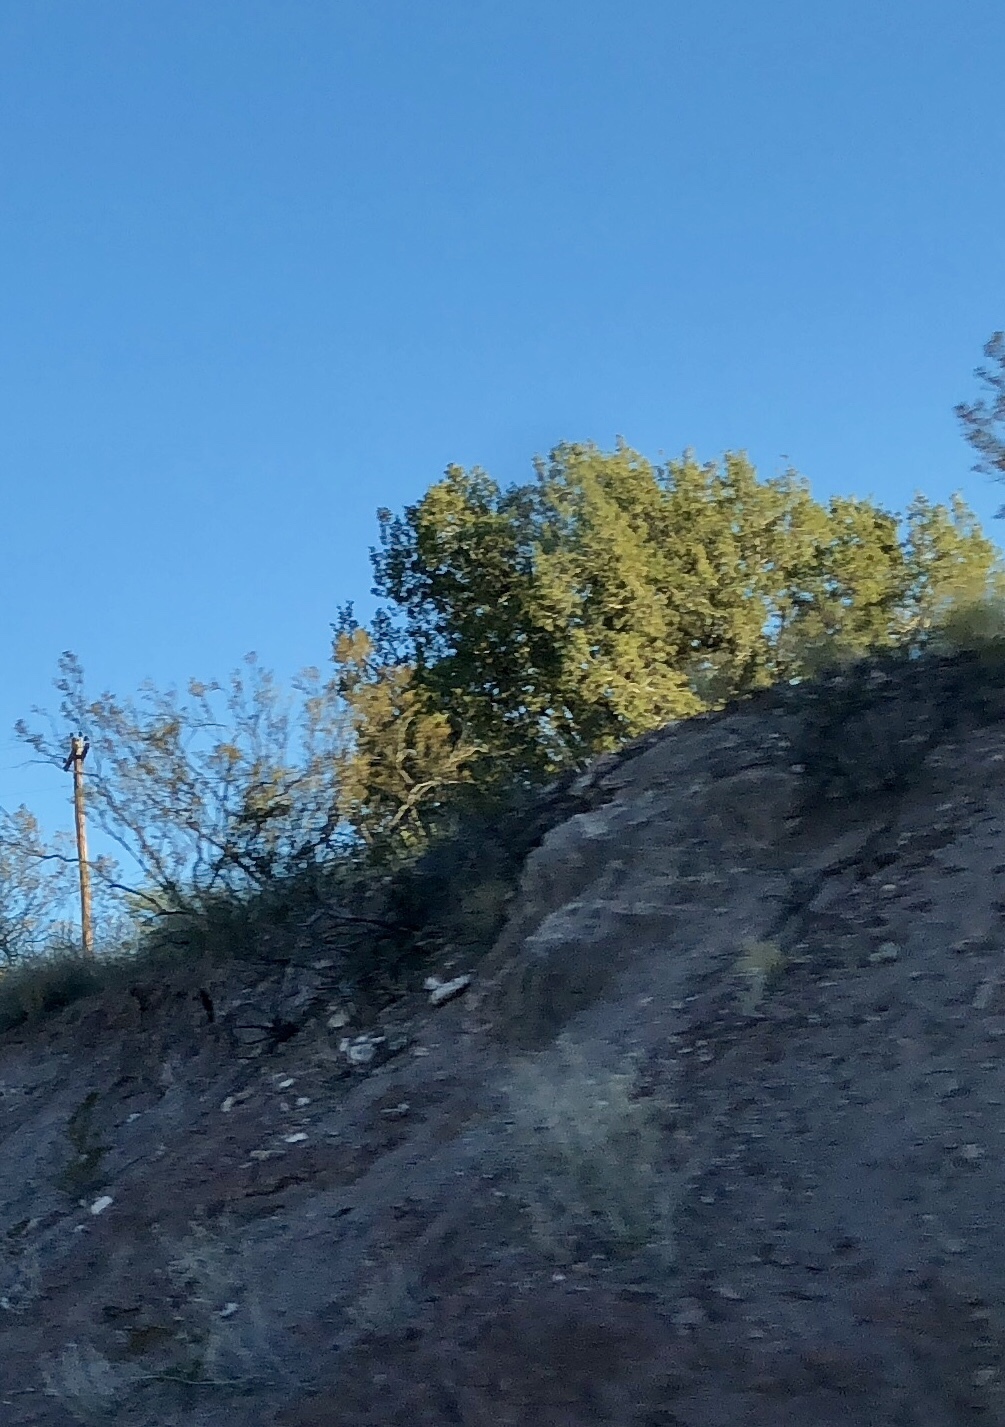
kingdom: Plantae
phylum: Tracheophyta
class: Magnoliopsida
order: Zygophyllales
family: Zygophyllaceae
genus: Larrea
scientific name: Larrea tridentata
